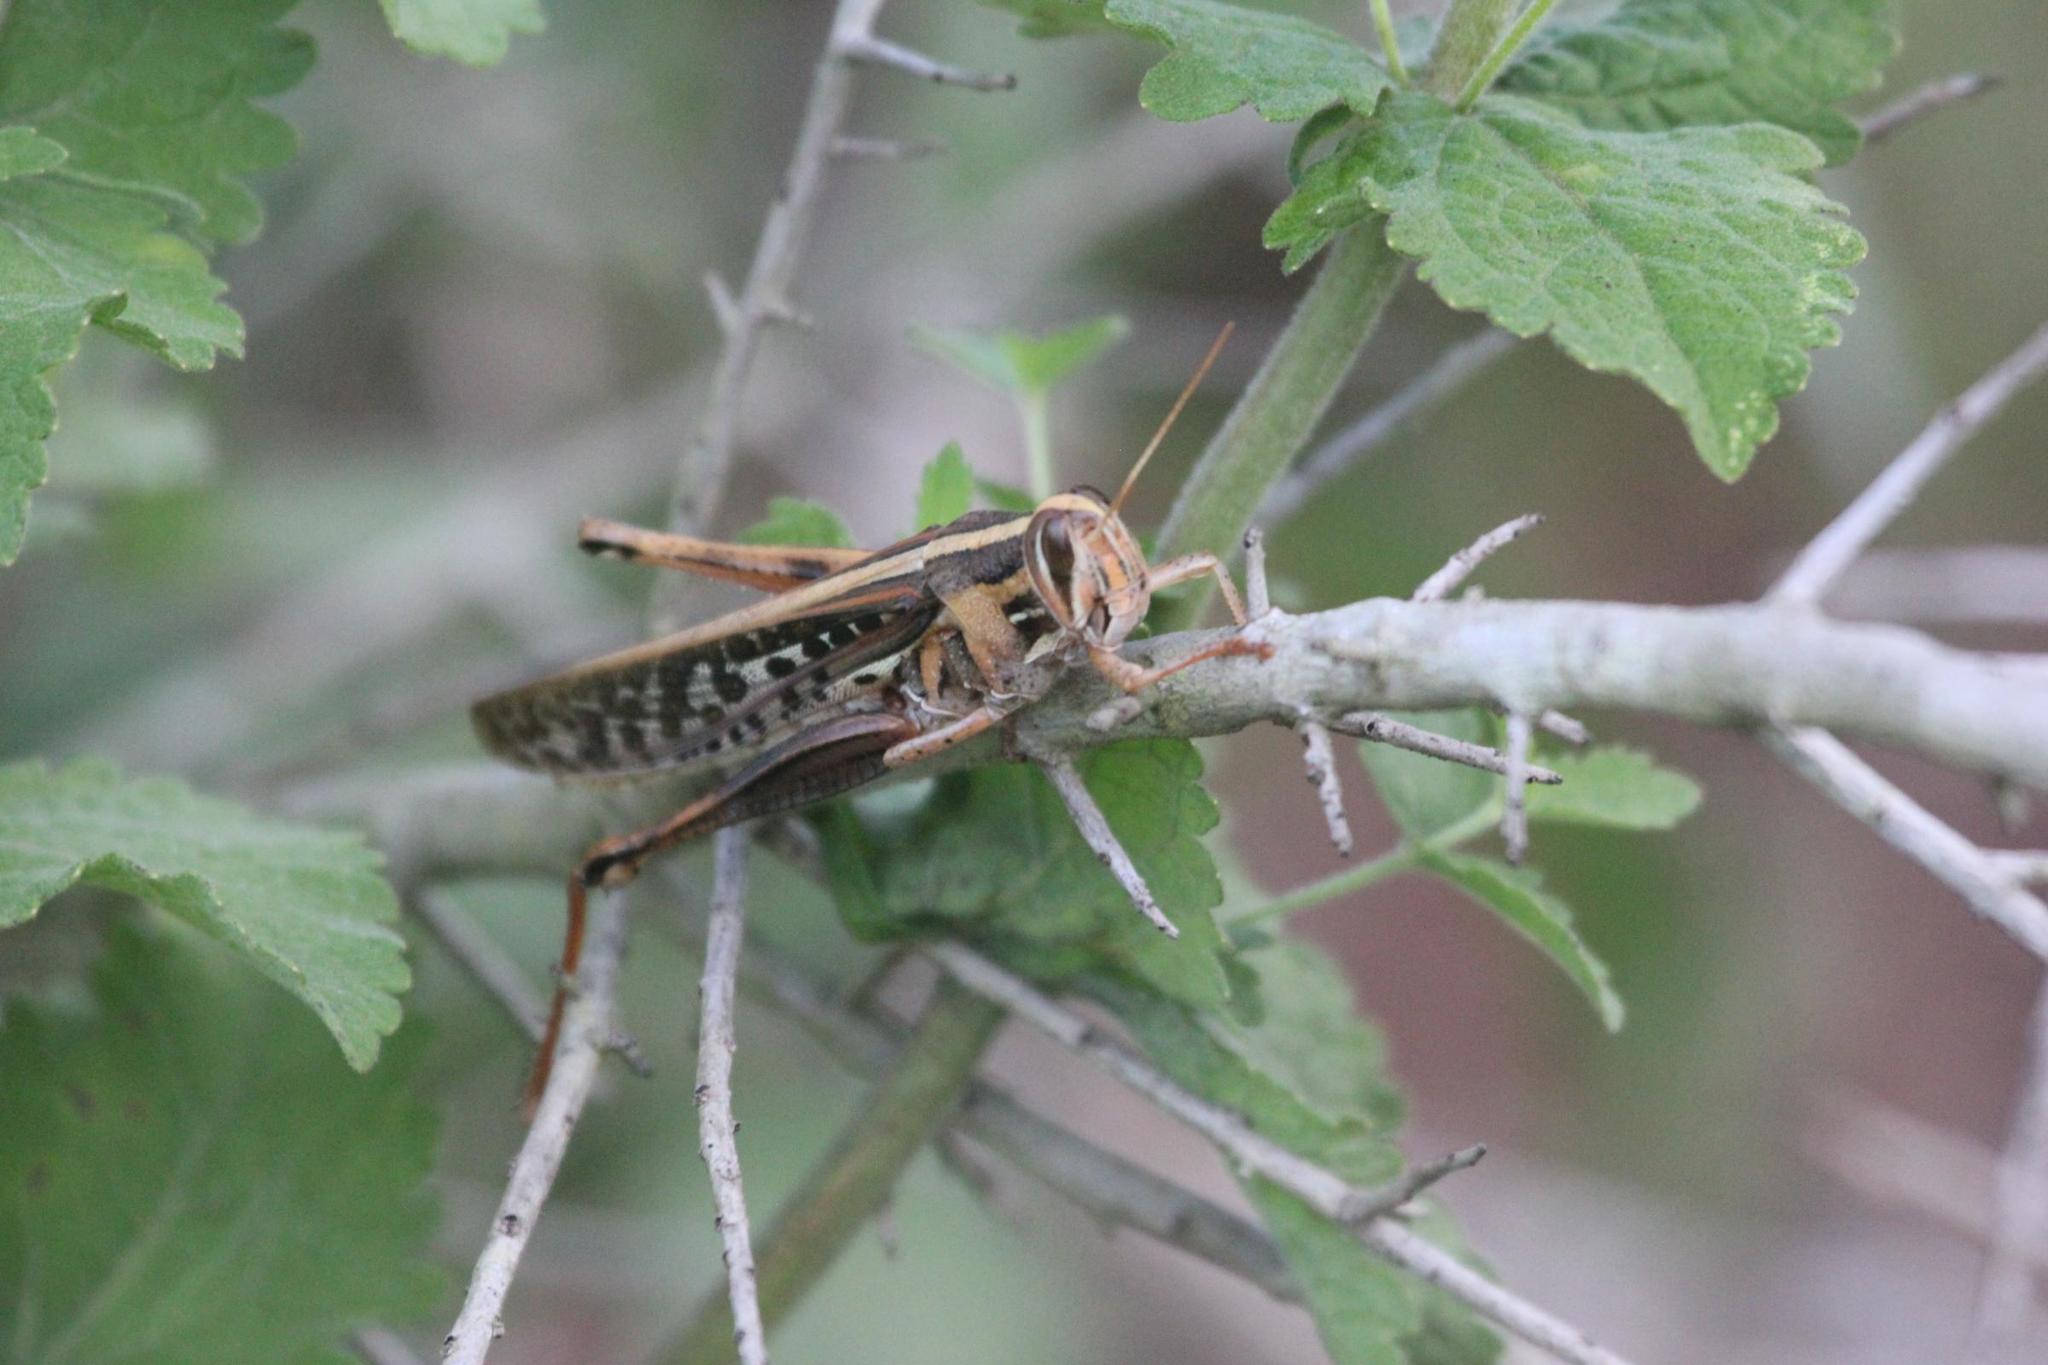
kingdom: Animalia
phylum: Arthropoda
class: Insecta
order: Orthoptera
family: Acrididae
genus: Schistocerca
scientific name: Schistocerca americana
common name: American bird locust
